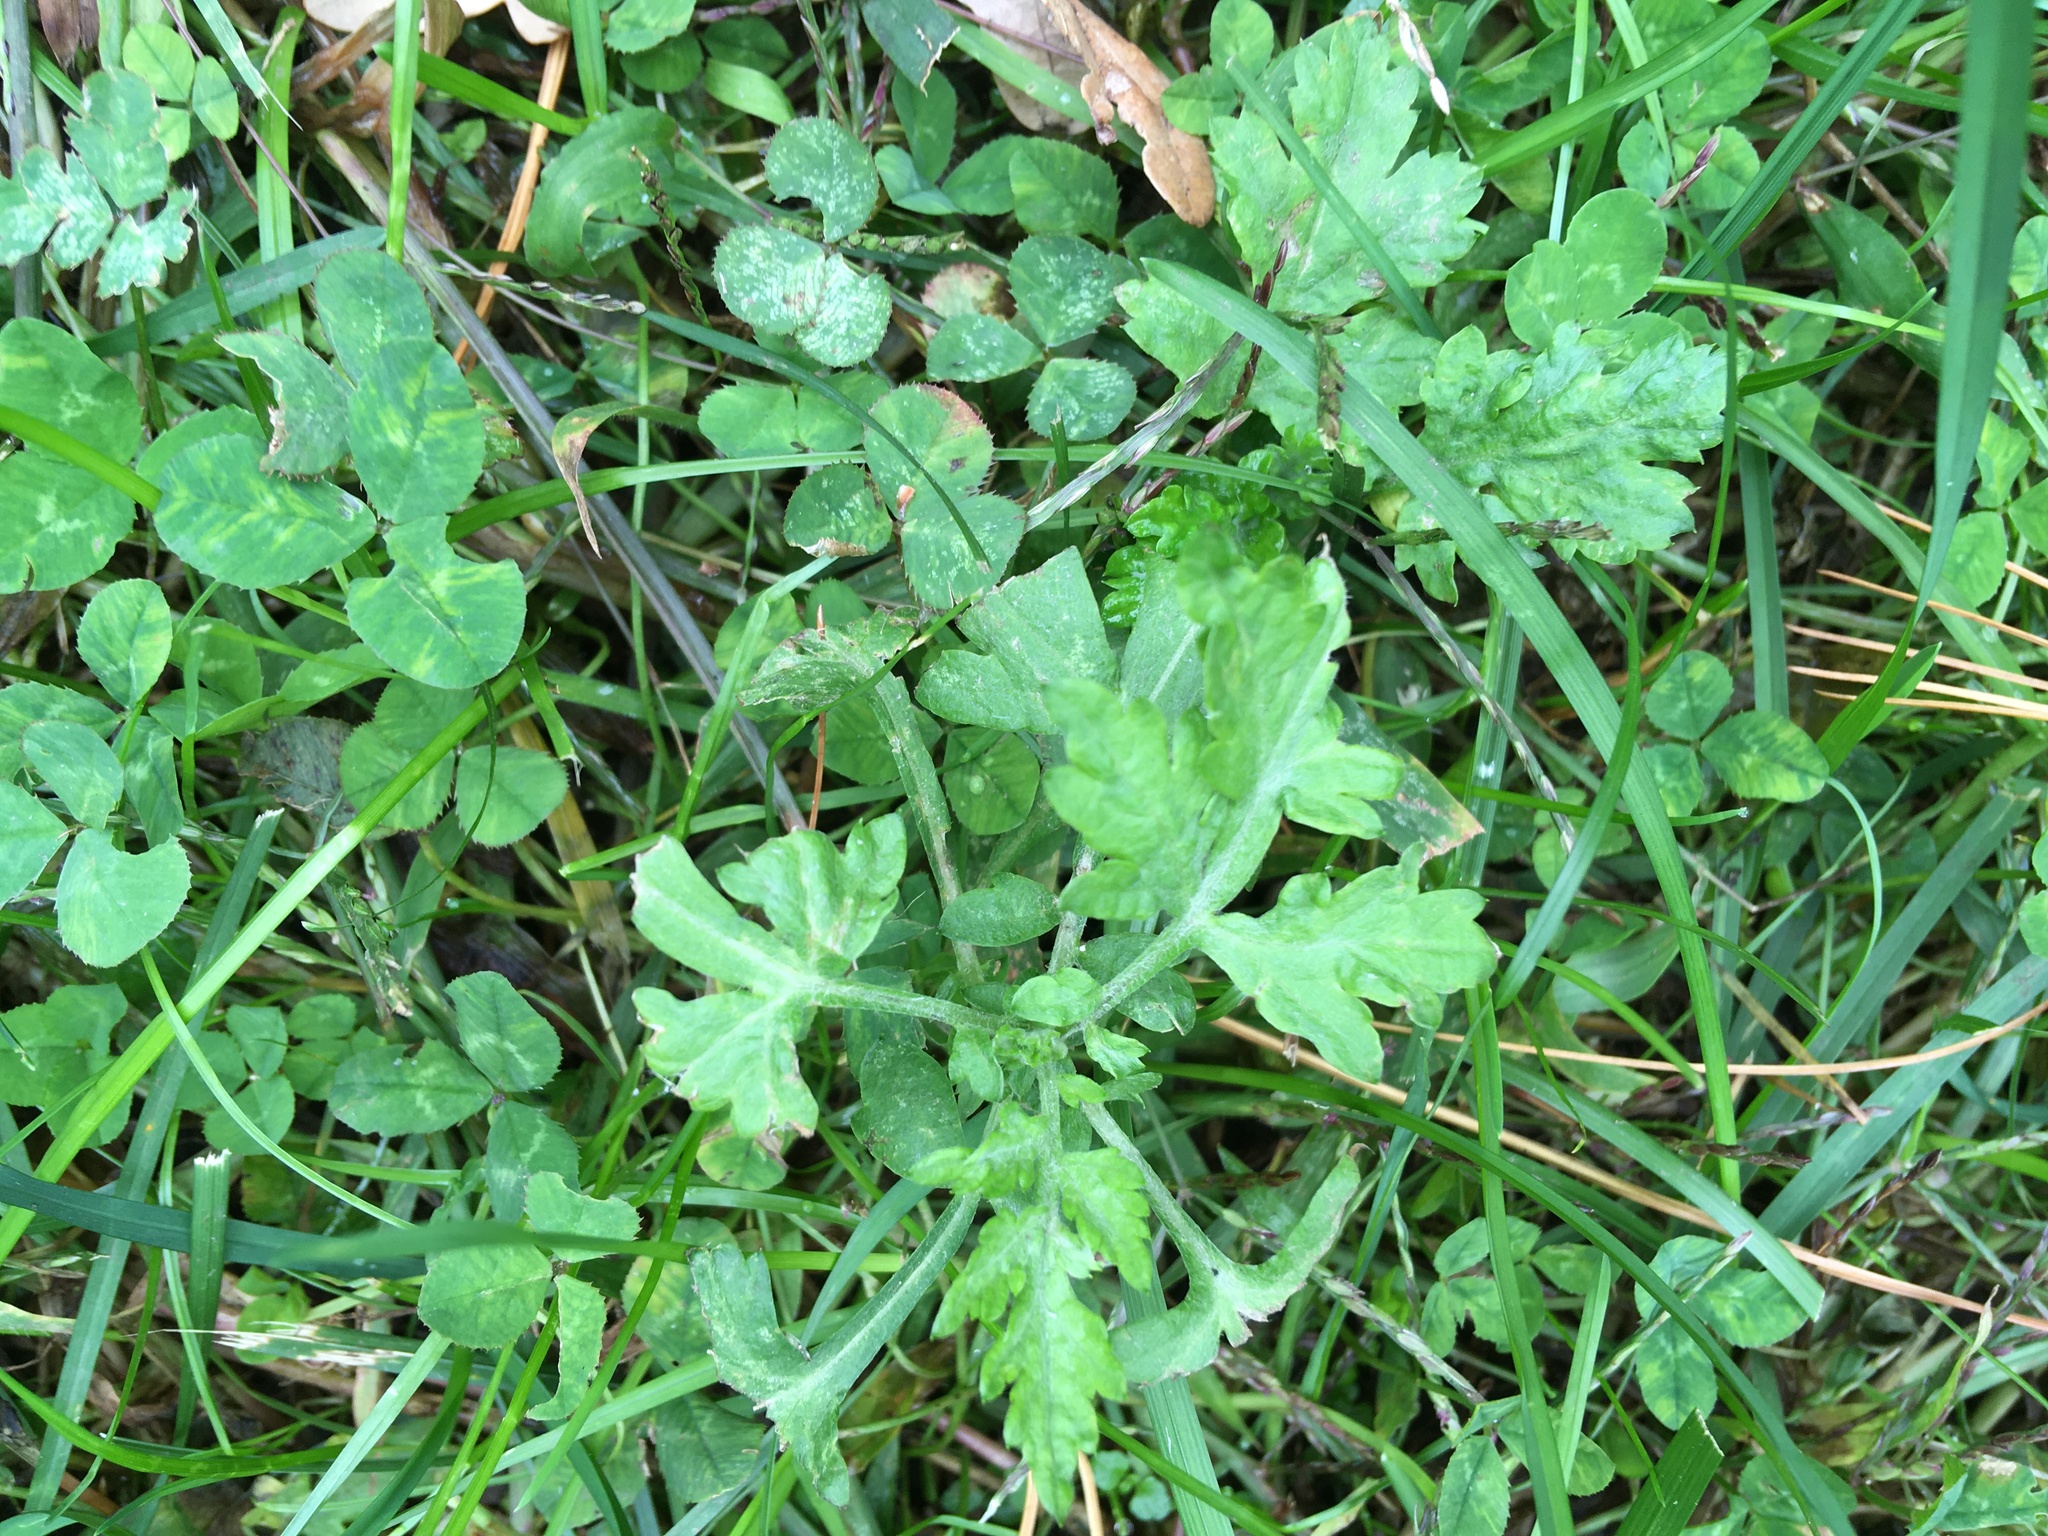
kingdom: Plantae
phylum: Tracheophyta
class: Magnoliopsida
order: Asterales
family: Asteraceae
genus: Artemisia
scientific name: Artemisia vulgaris
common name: Mugwort
